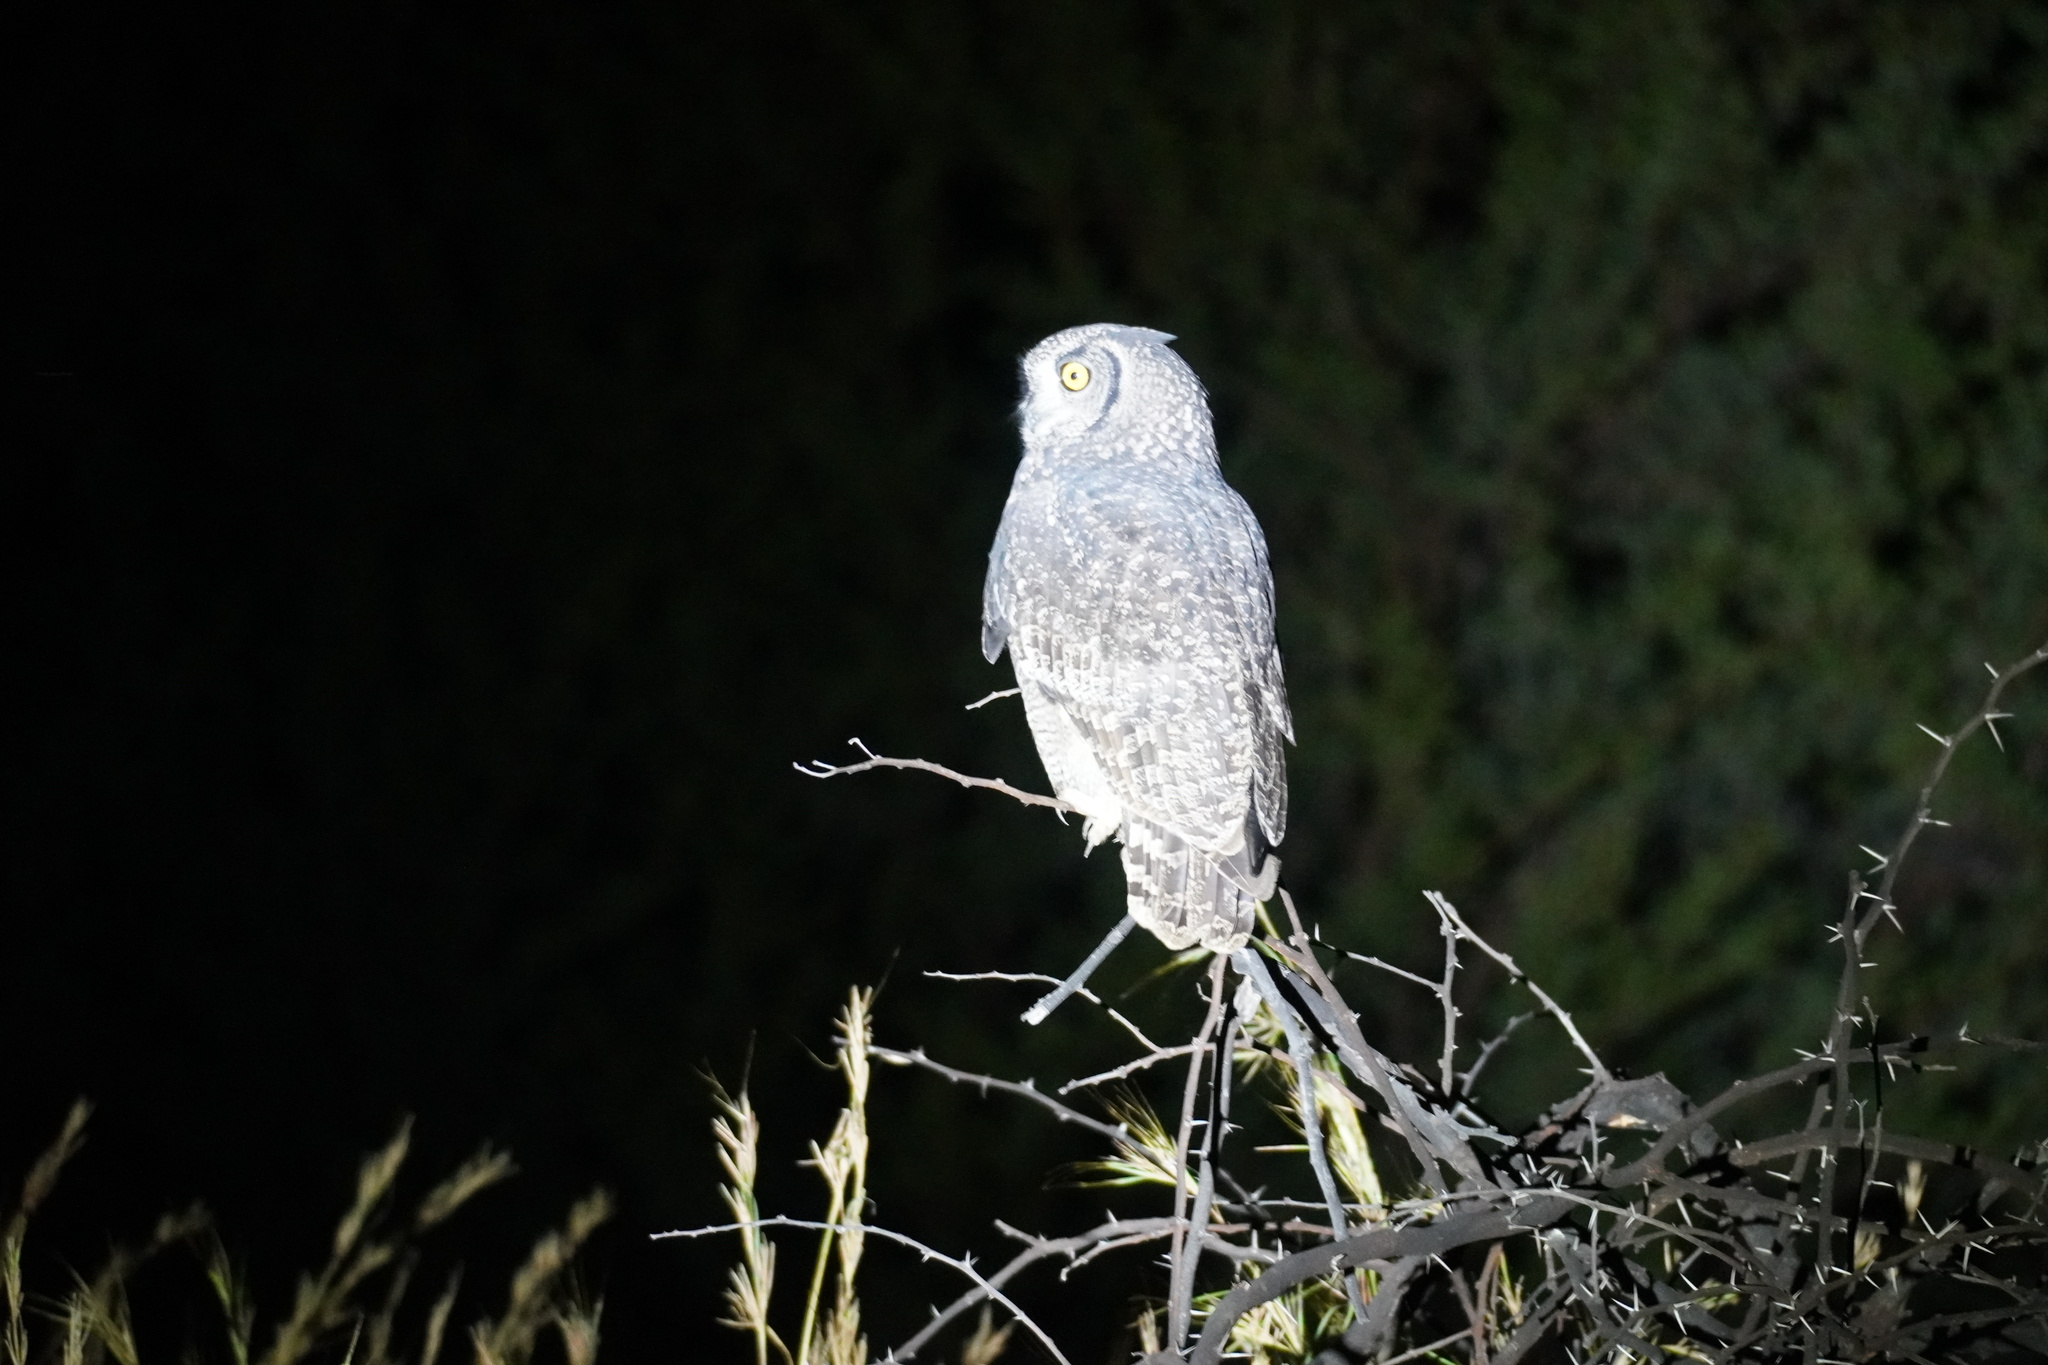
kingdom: Animalia
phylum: Chordata
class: Aves
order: Strigiformes
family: Strigidae
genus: Bubo
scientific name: Bubo africanus
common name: Spotted eagle-owl
